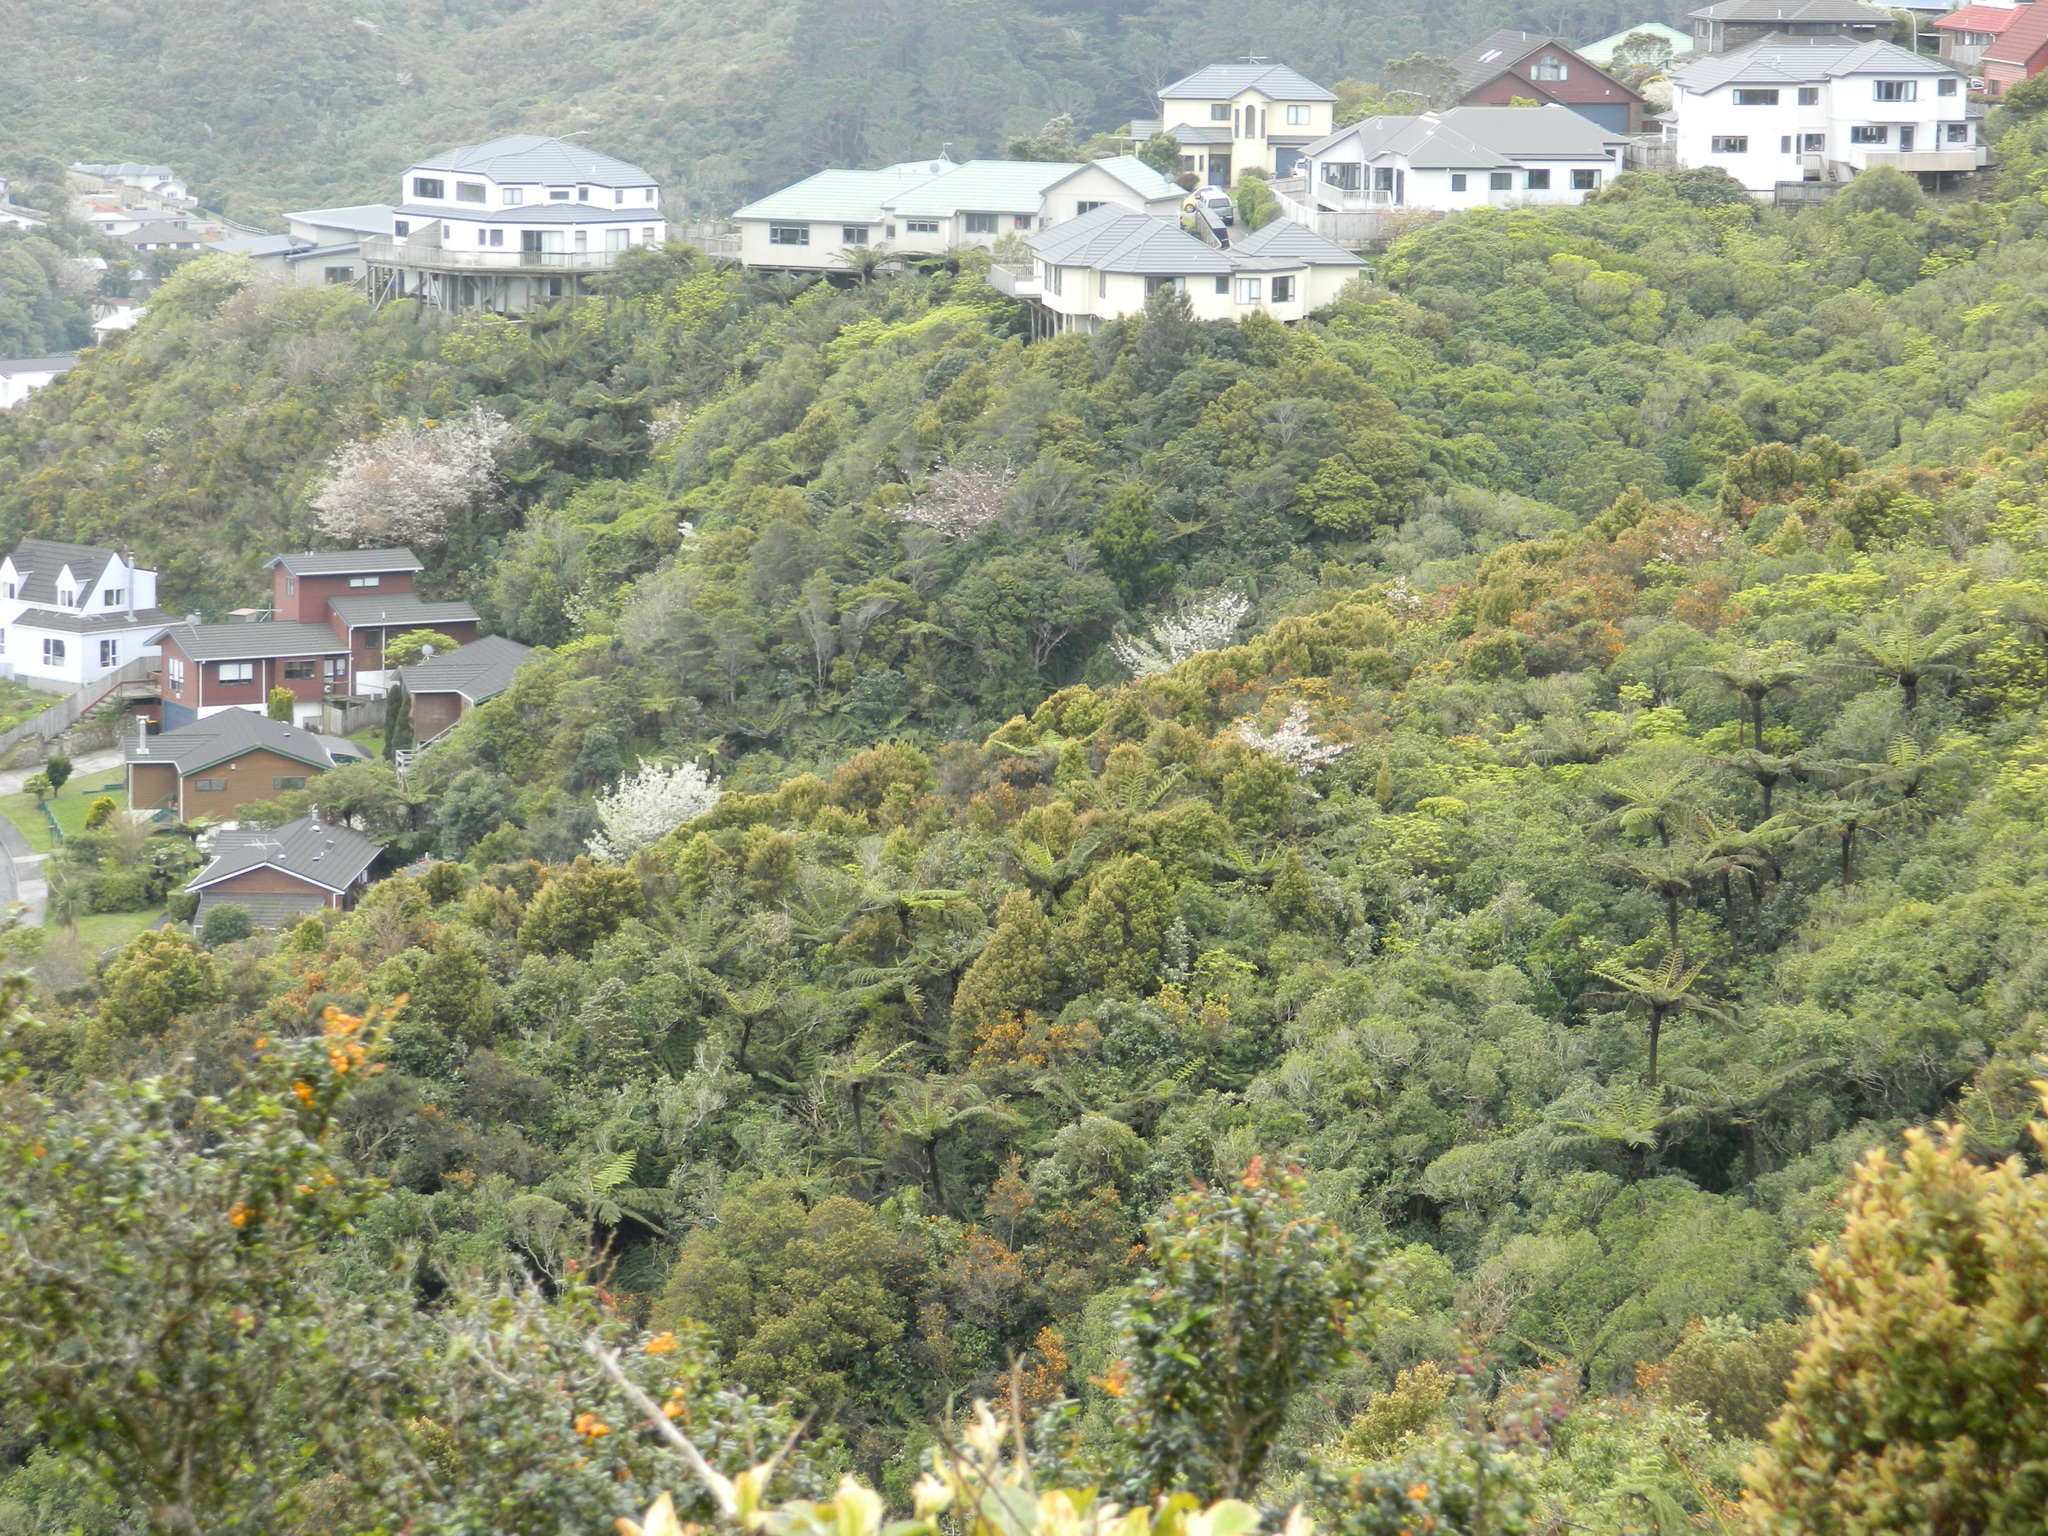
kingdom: Plantae
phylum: Tracheophyta
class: Magnoliopsida
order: Rosales
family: Rosaceae
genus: Prunus
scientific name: Prunus avium
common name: Sweet cherry
